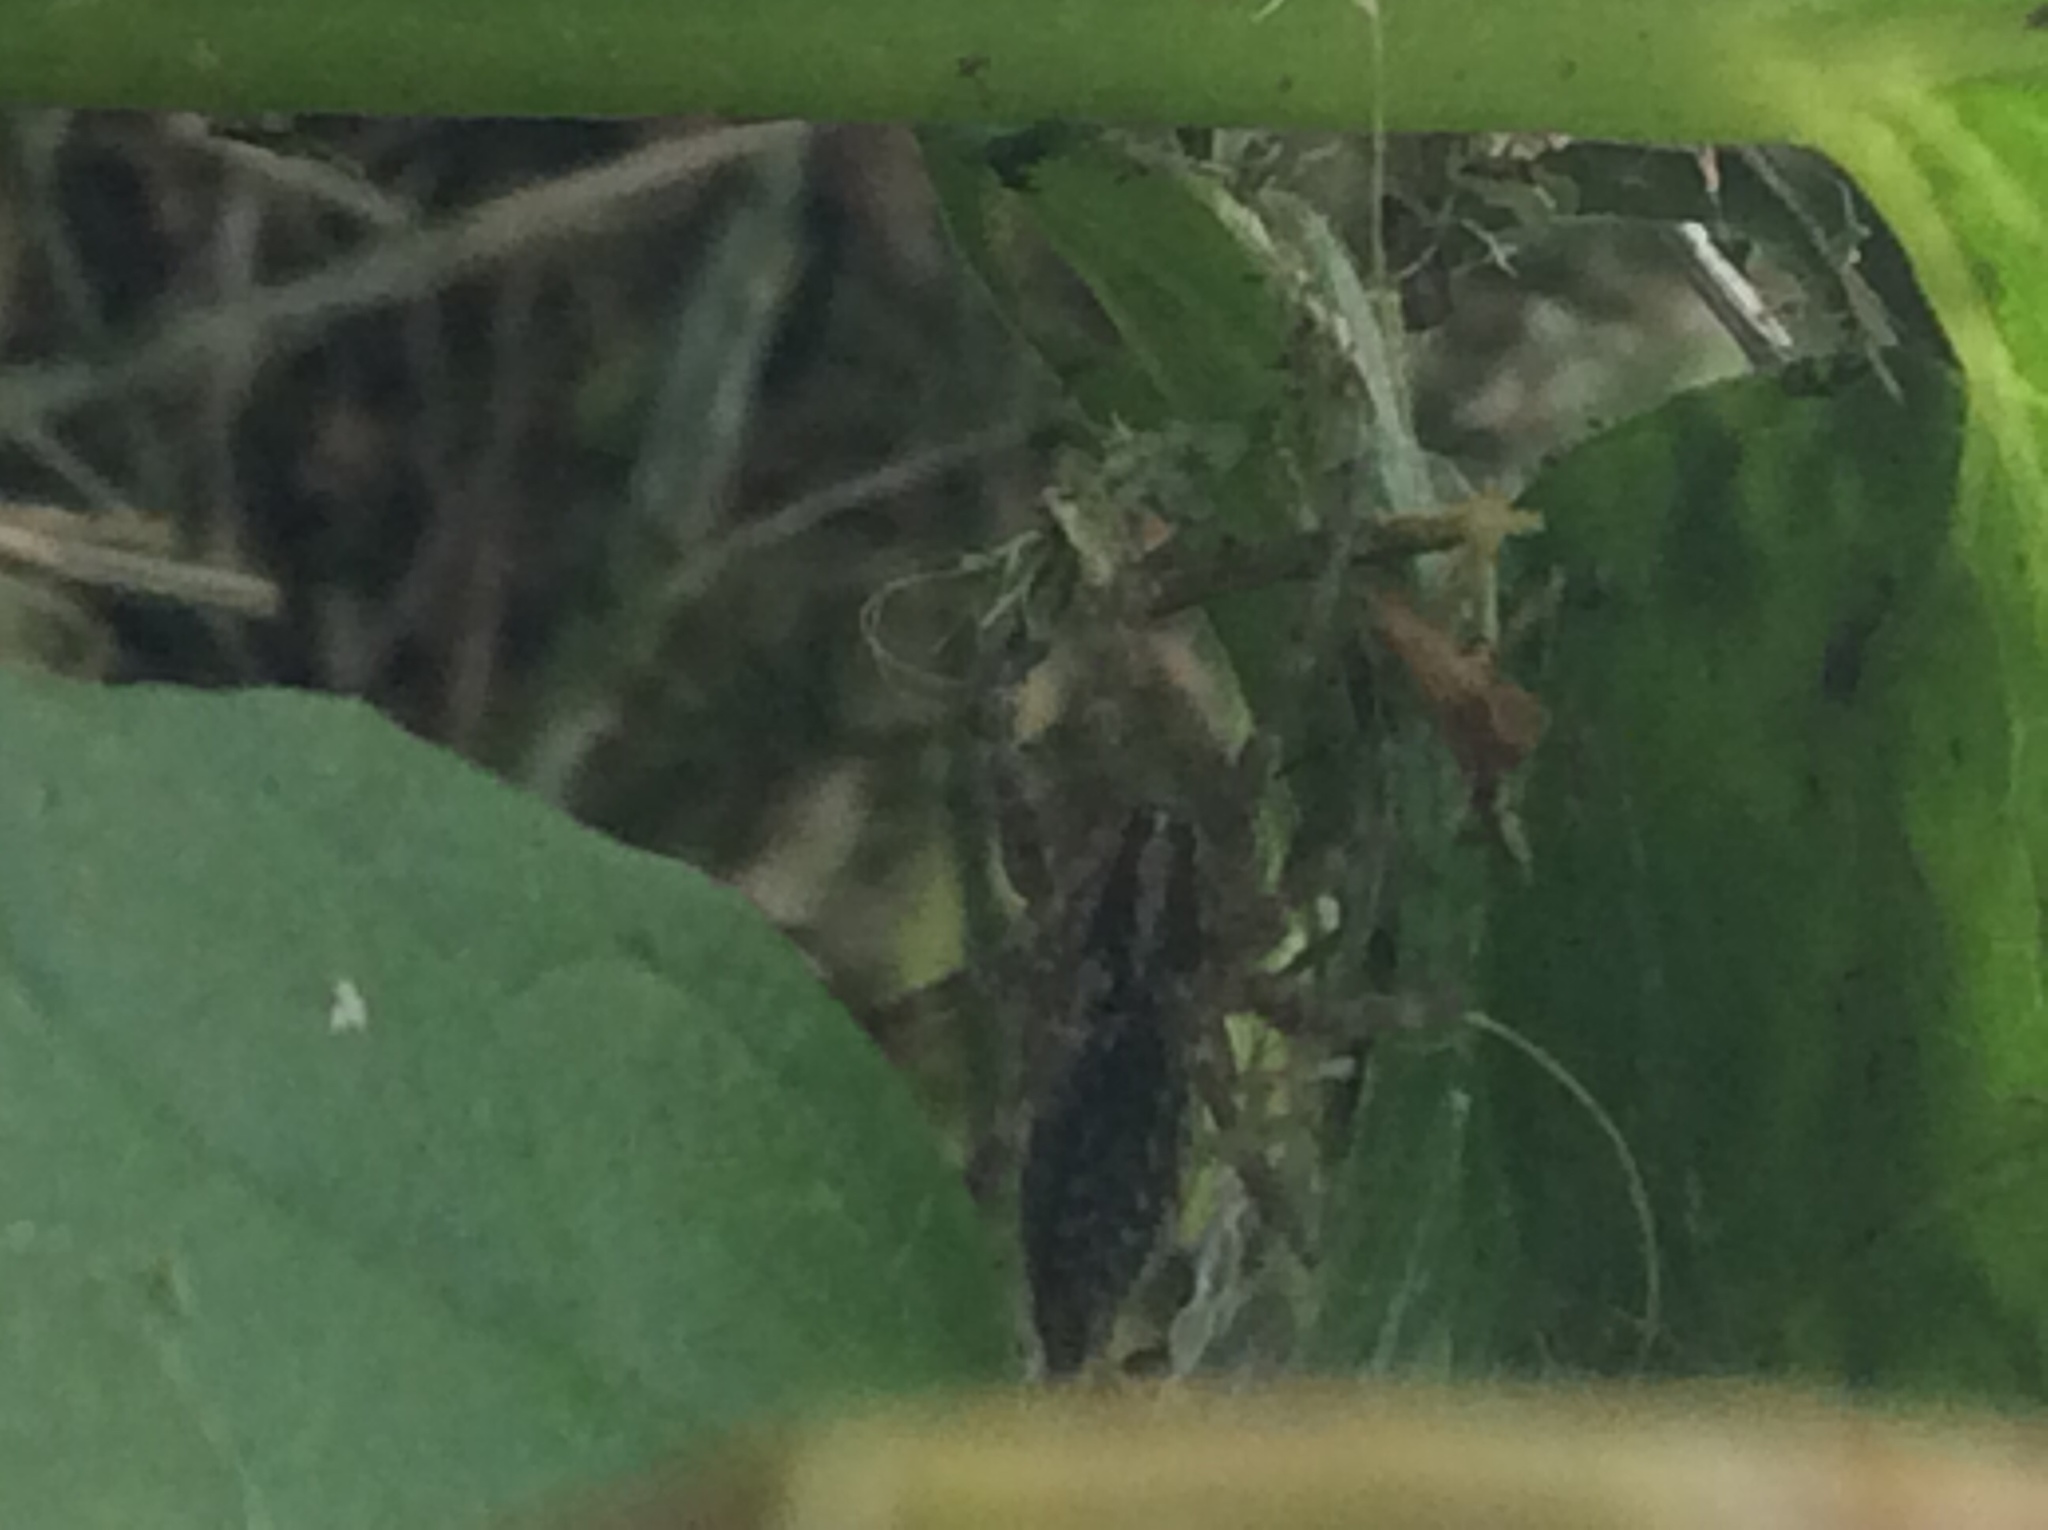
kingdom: Animalia
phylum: Arthropoda
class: Arachnida
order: Araneae
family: Agelenidae
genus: Agelenopsis
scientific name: Agelenopsis
